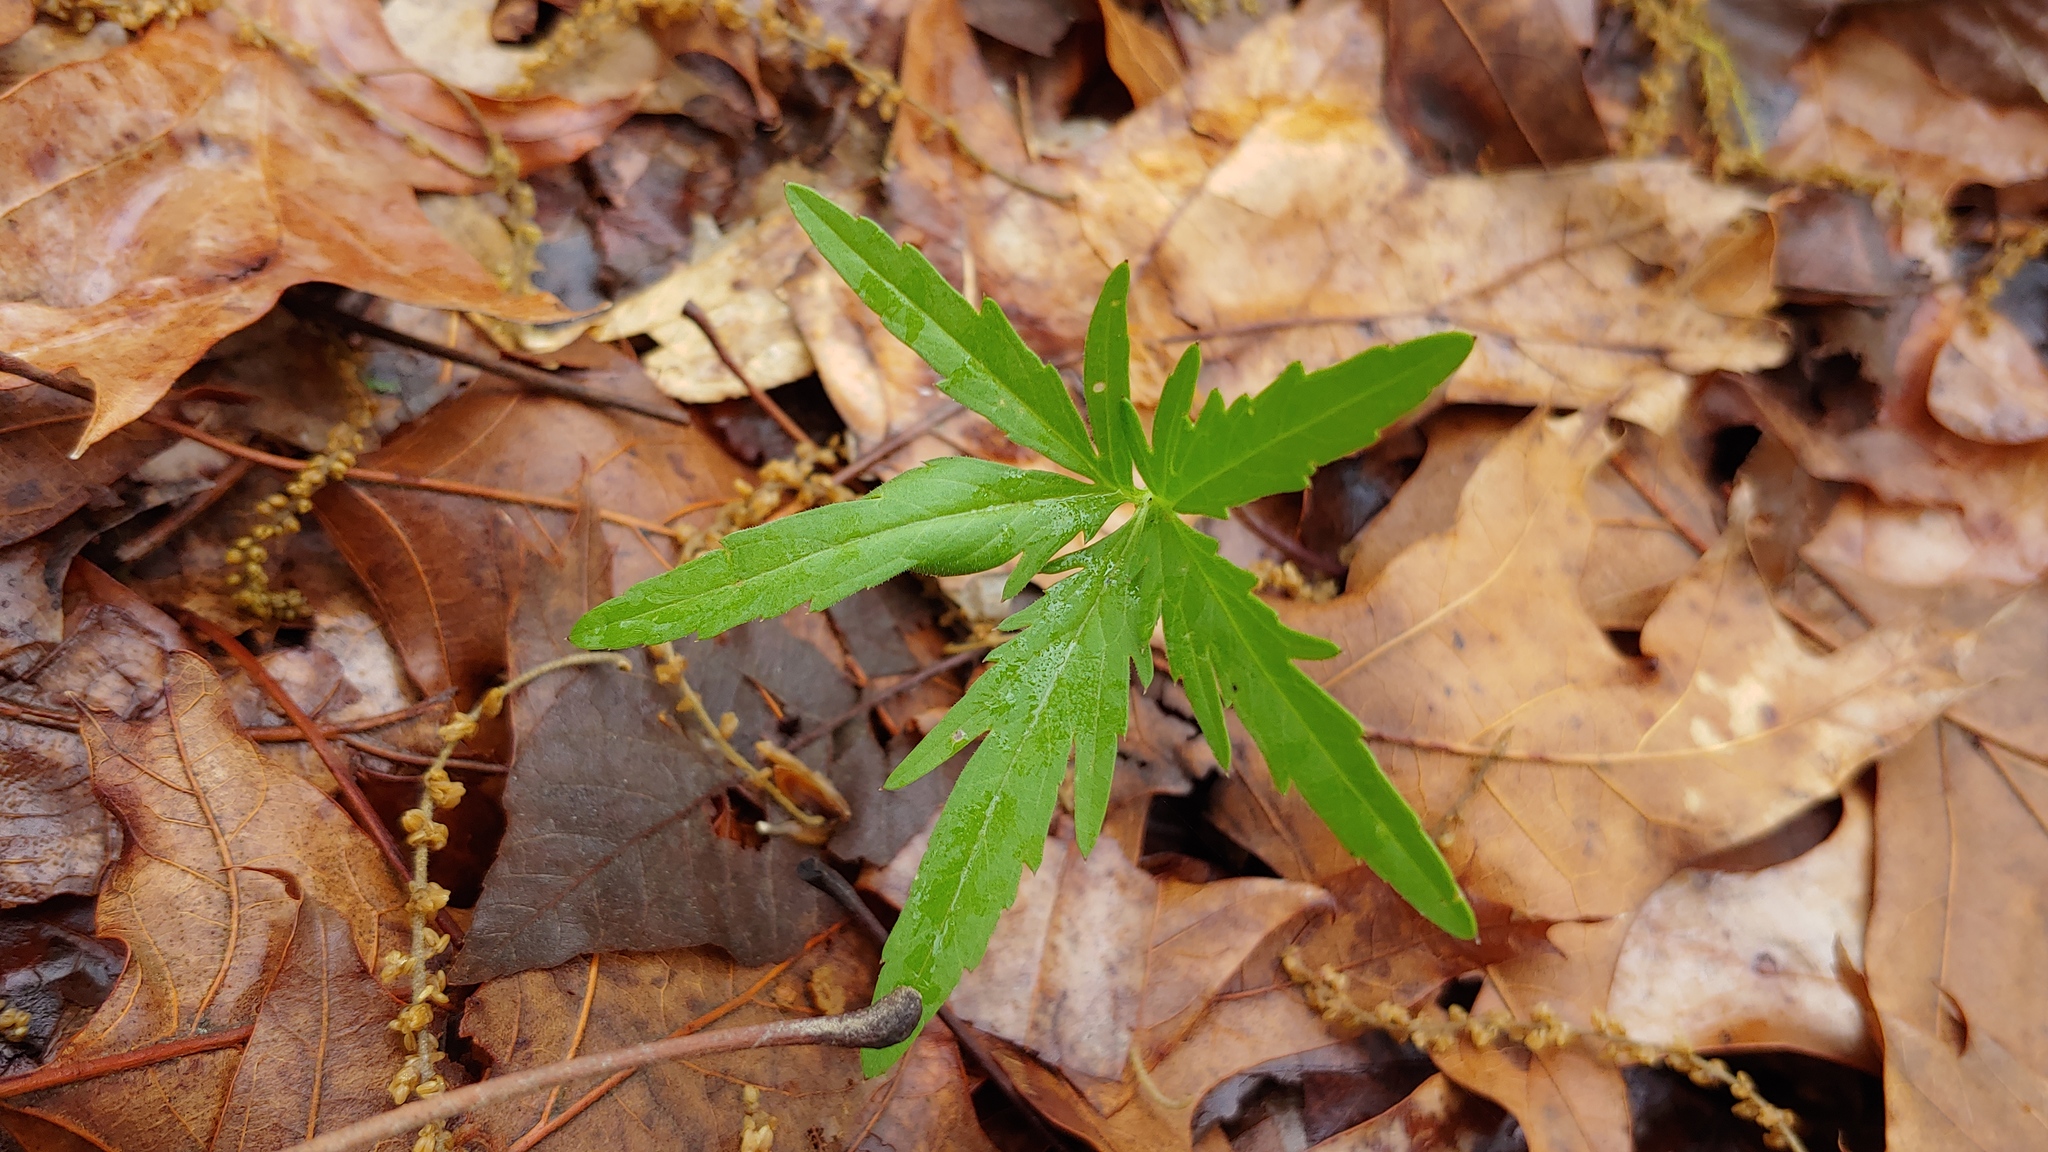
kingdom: Plantae
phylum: Tracheophyta
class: Magnoliopsida
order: Brassicales
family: Brassicaceae
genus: Cardamine
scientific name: Cardamine concatenata
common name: Cut-leaf toothcup
